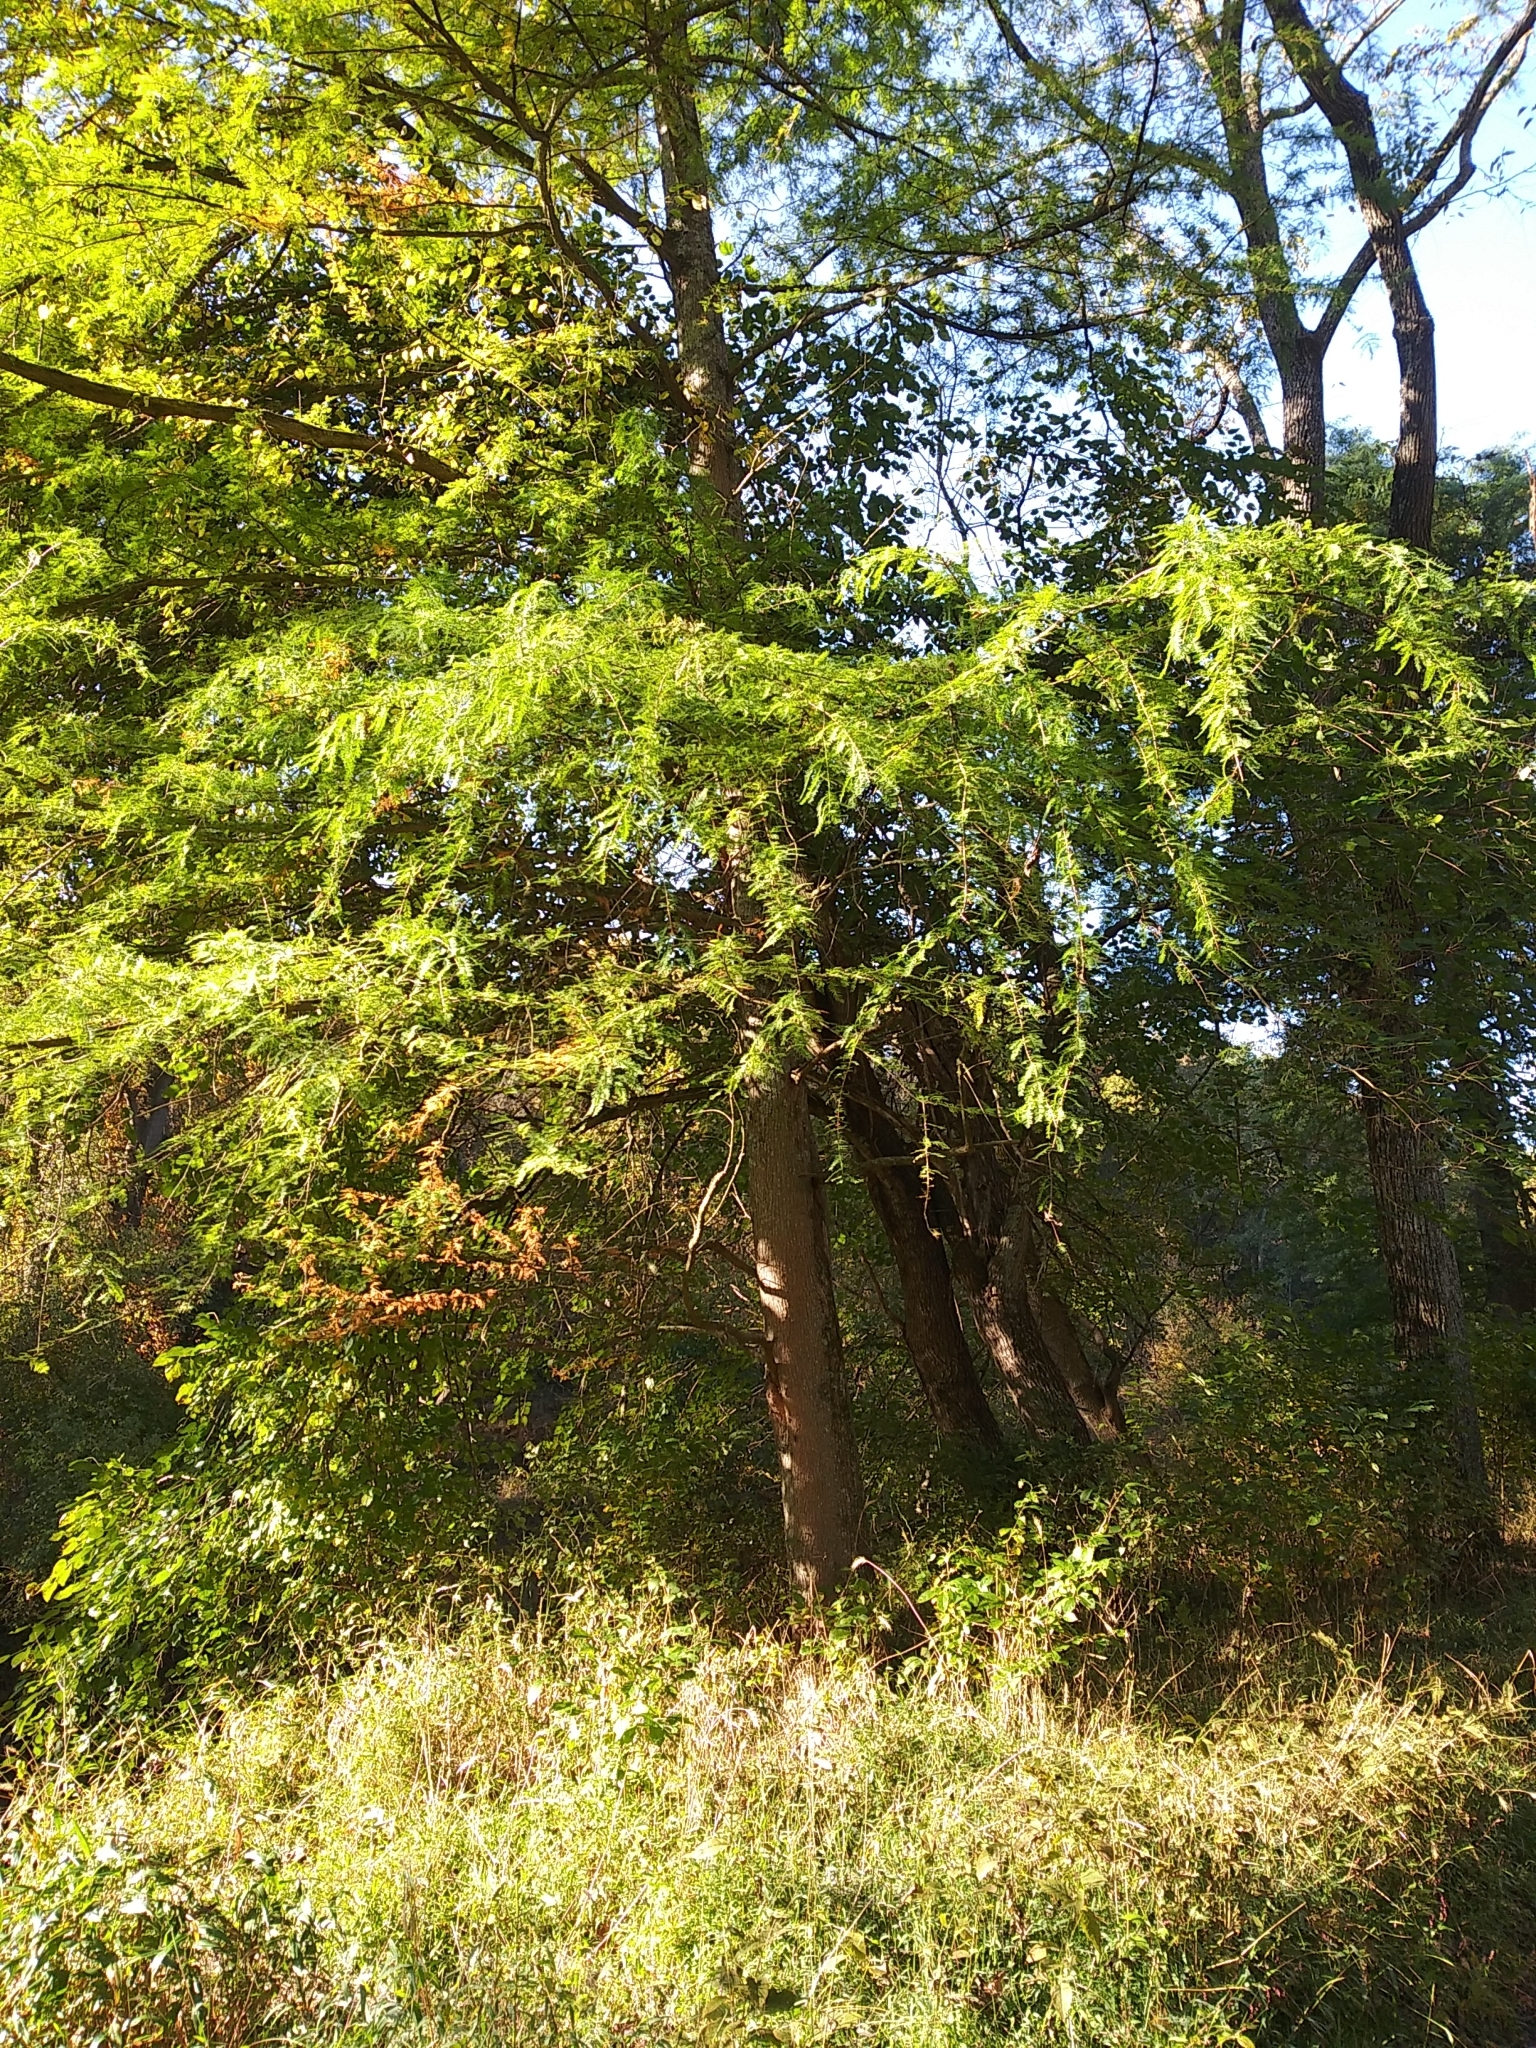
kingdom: Plantae
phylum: Tracheophyta
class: Pinopsida
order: Pinales
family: Cupressaceae
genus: Taxodium
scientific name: Taxodium distichum
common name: Bald cypress
